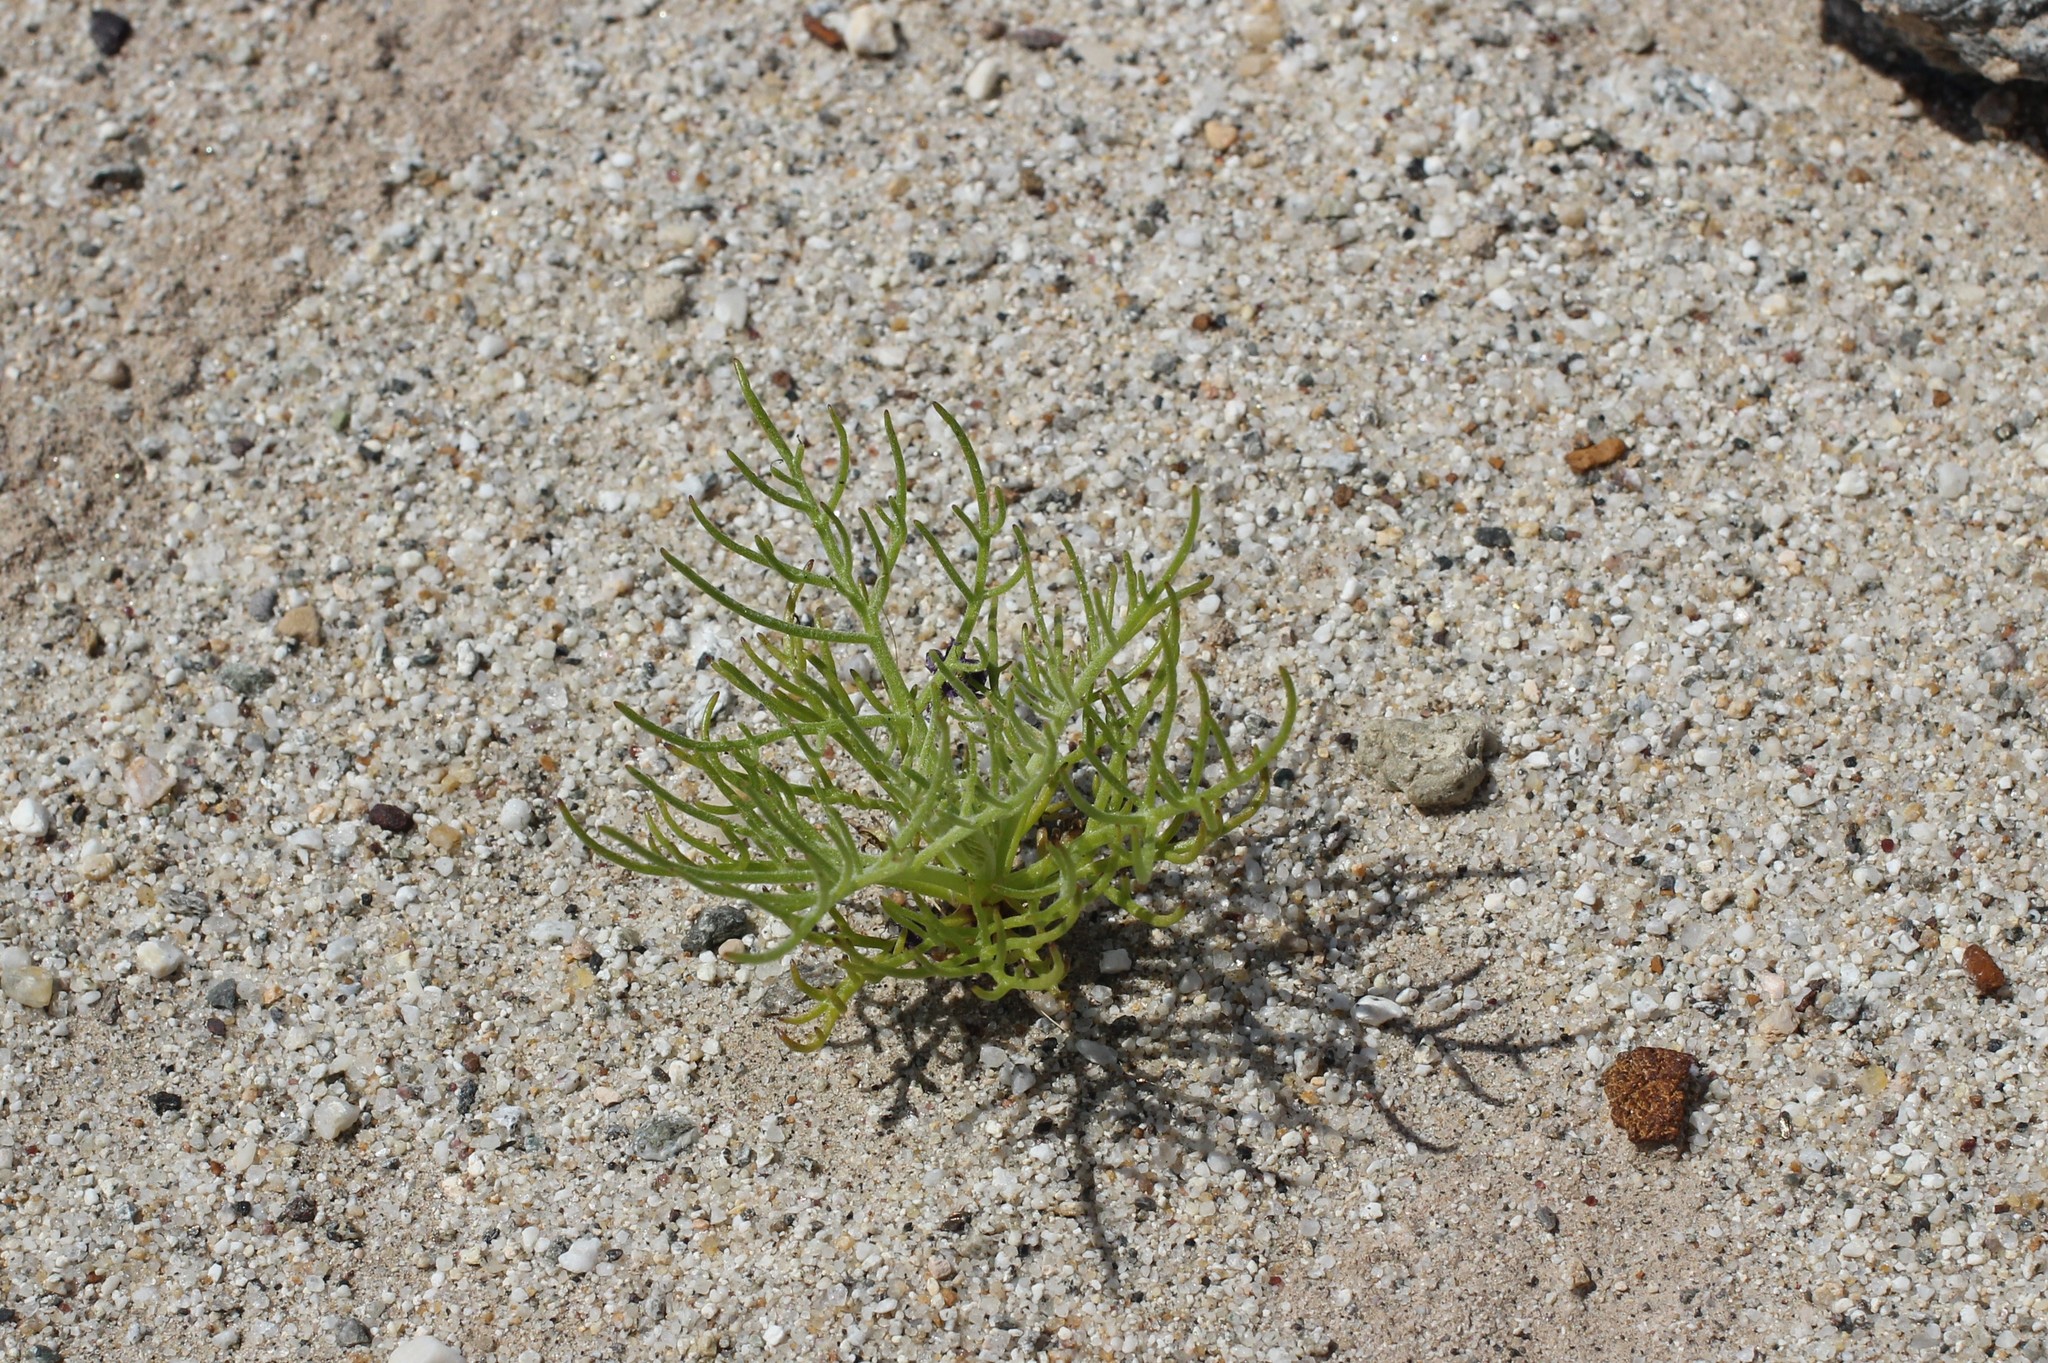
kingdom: Plantae
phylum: Tracheophyta
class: Magnoliopsida
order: Asterales
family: Asteraceae
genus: Chaenactis
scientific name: Chaenactis carphoclinia
